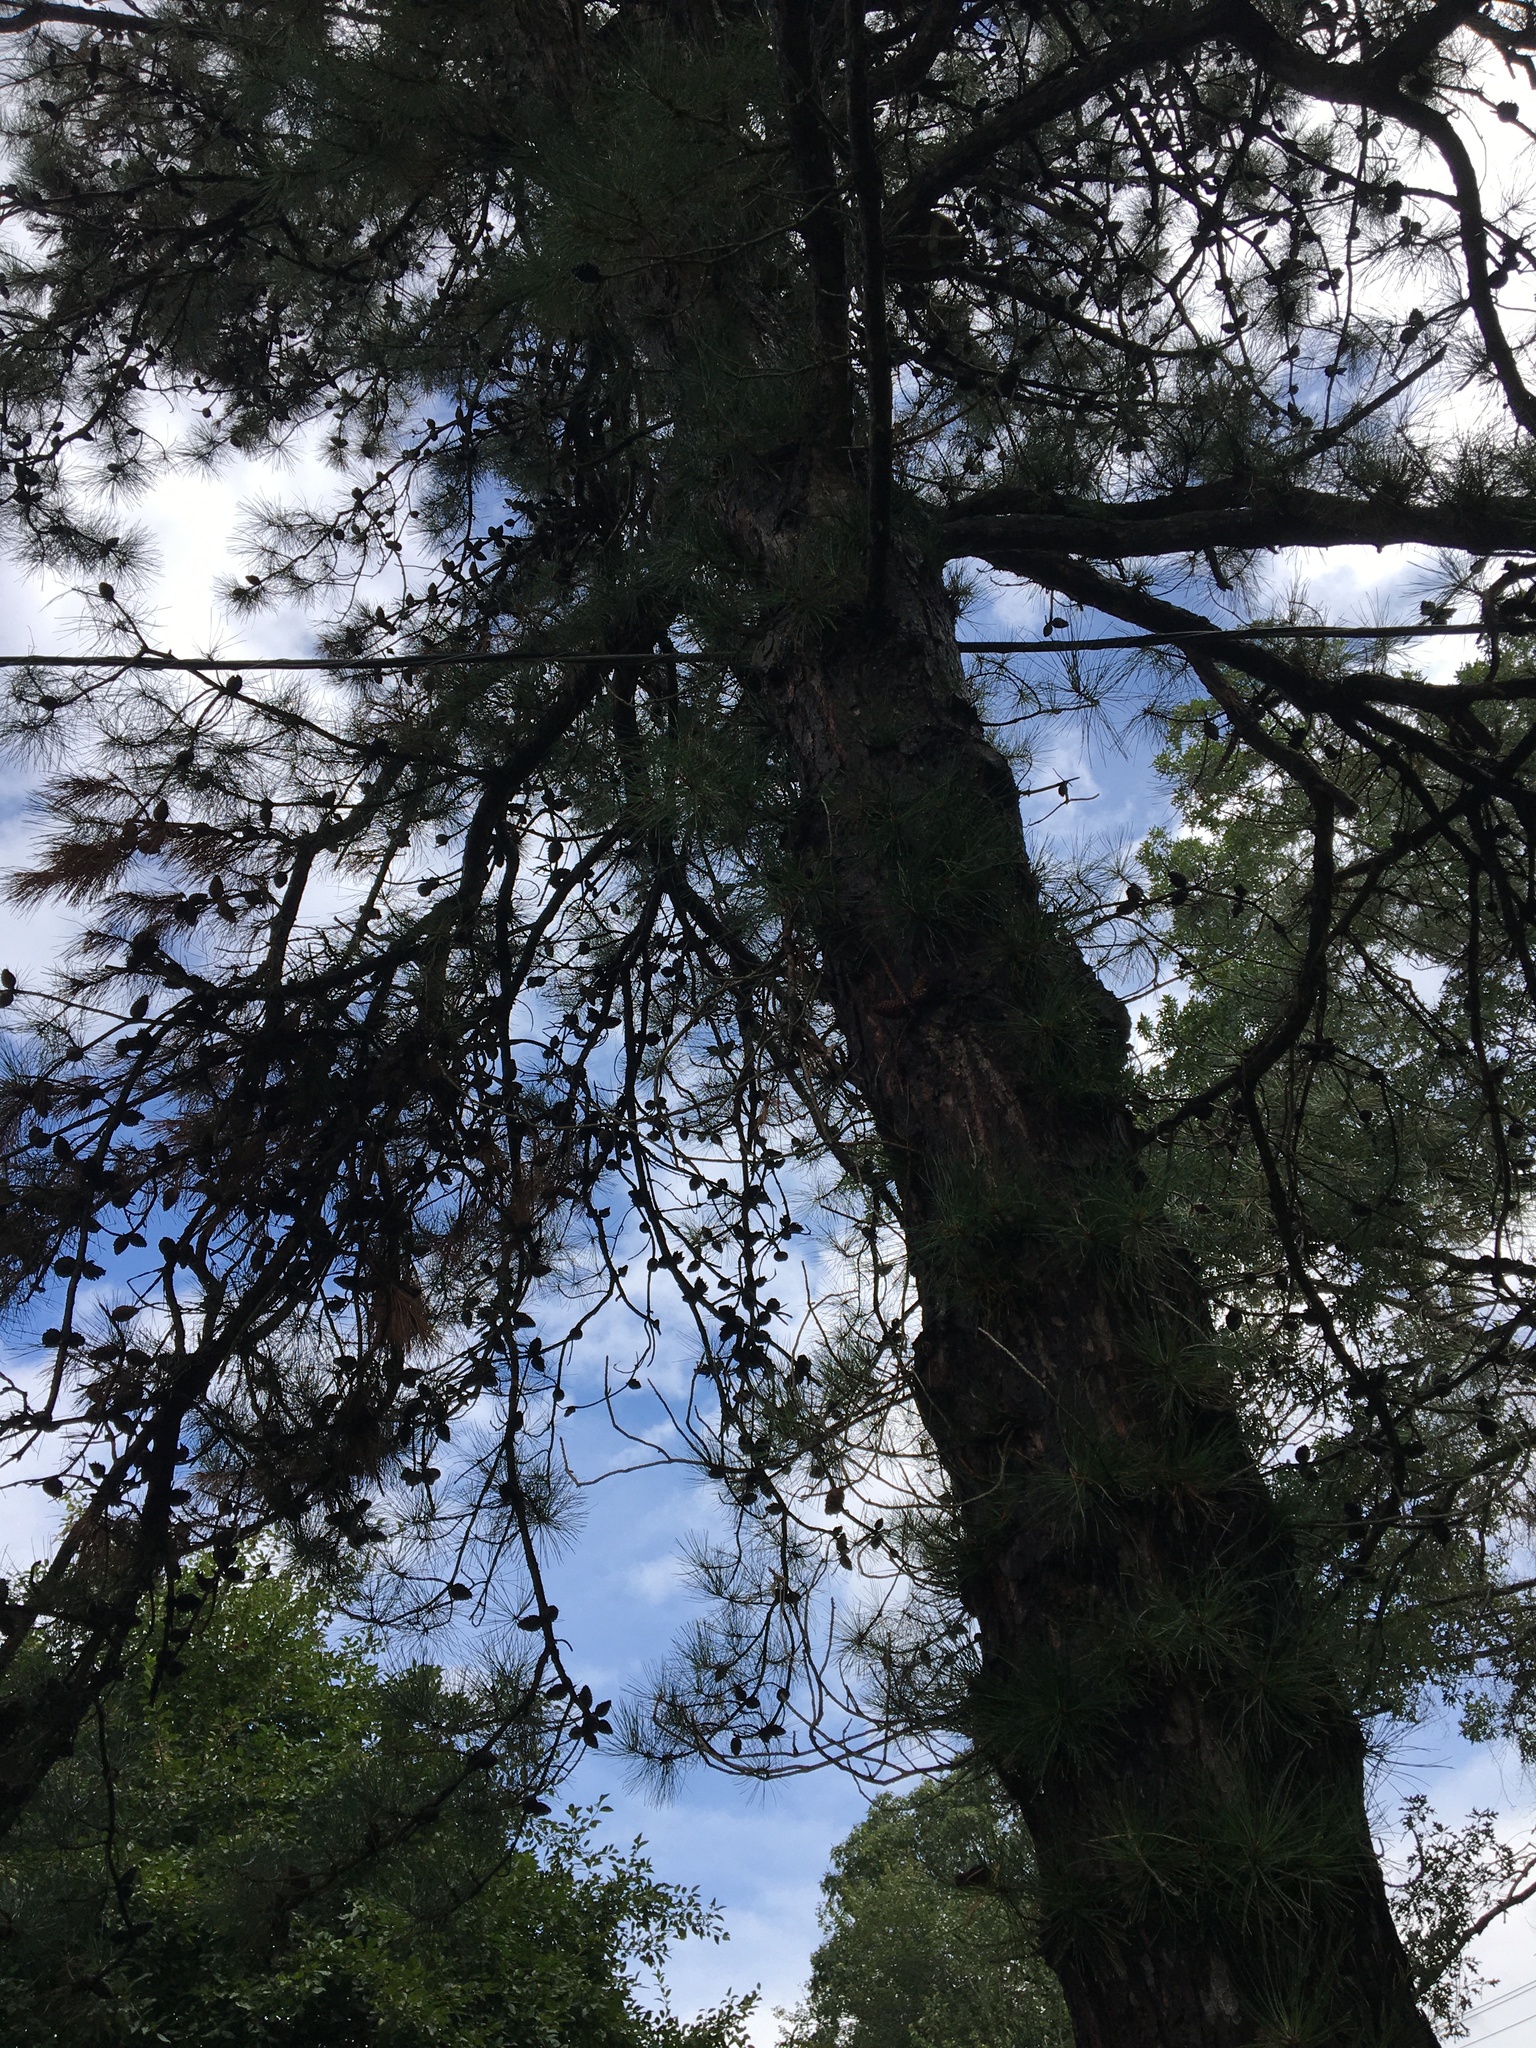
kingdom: Plantae
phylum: Tracheophyta
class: Pinopsida
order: Pinales
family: Pinaceae
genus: Pinus
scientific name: Pinus rigida
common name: Pitch pine
